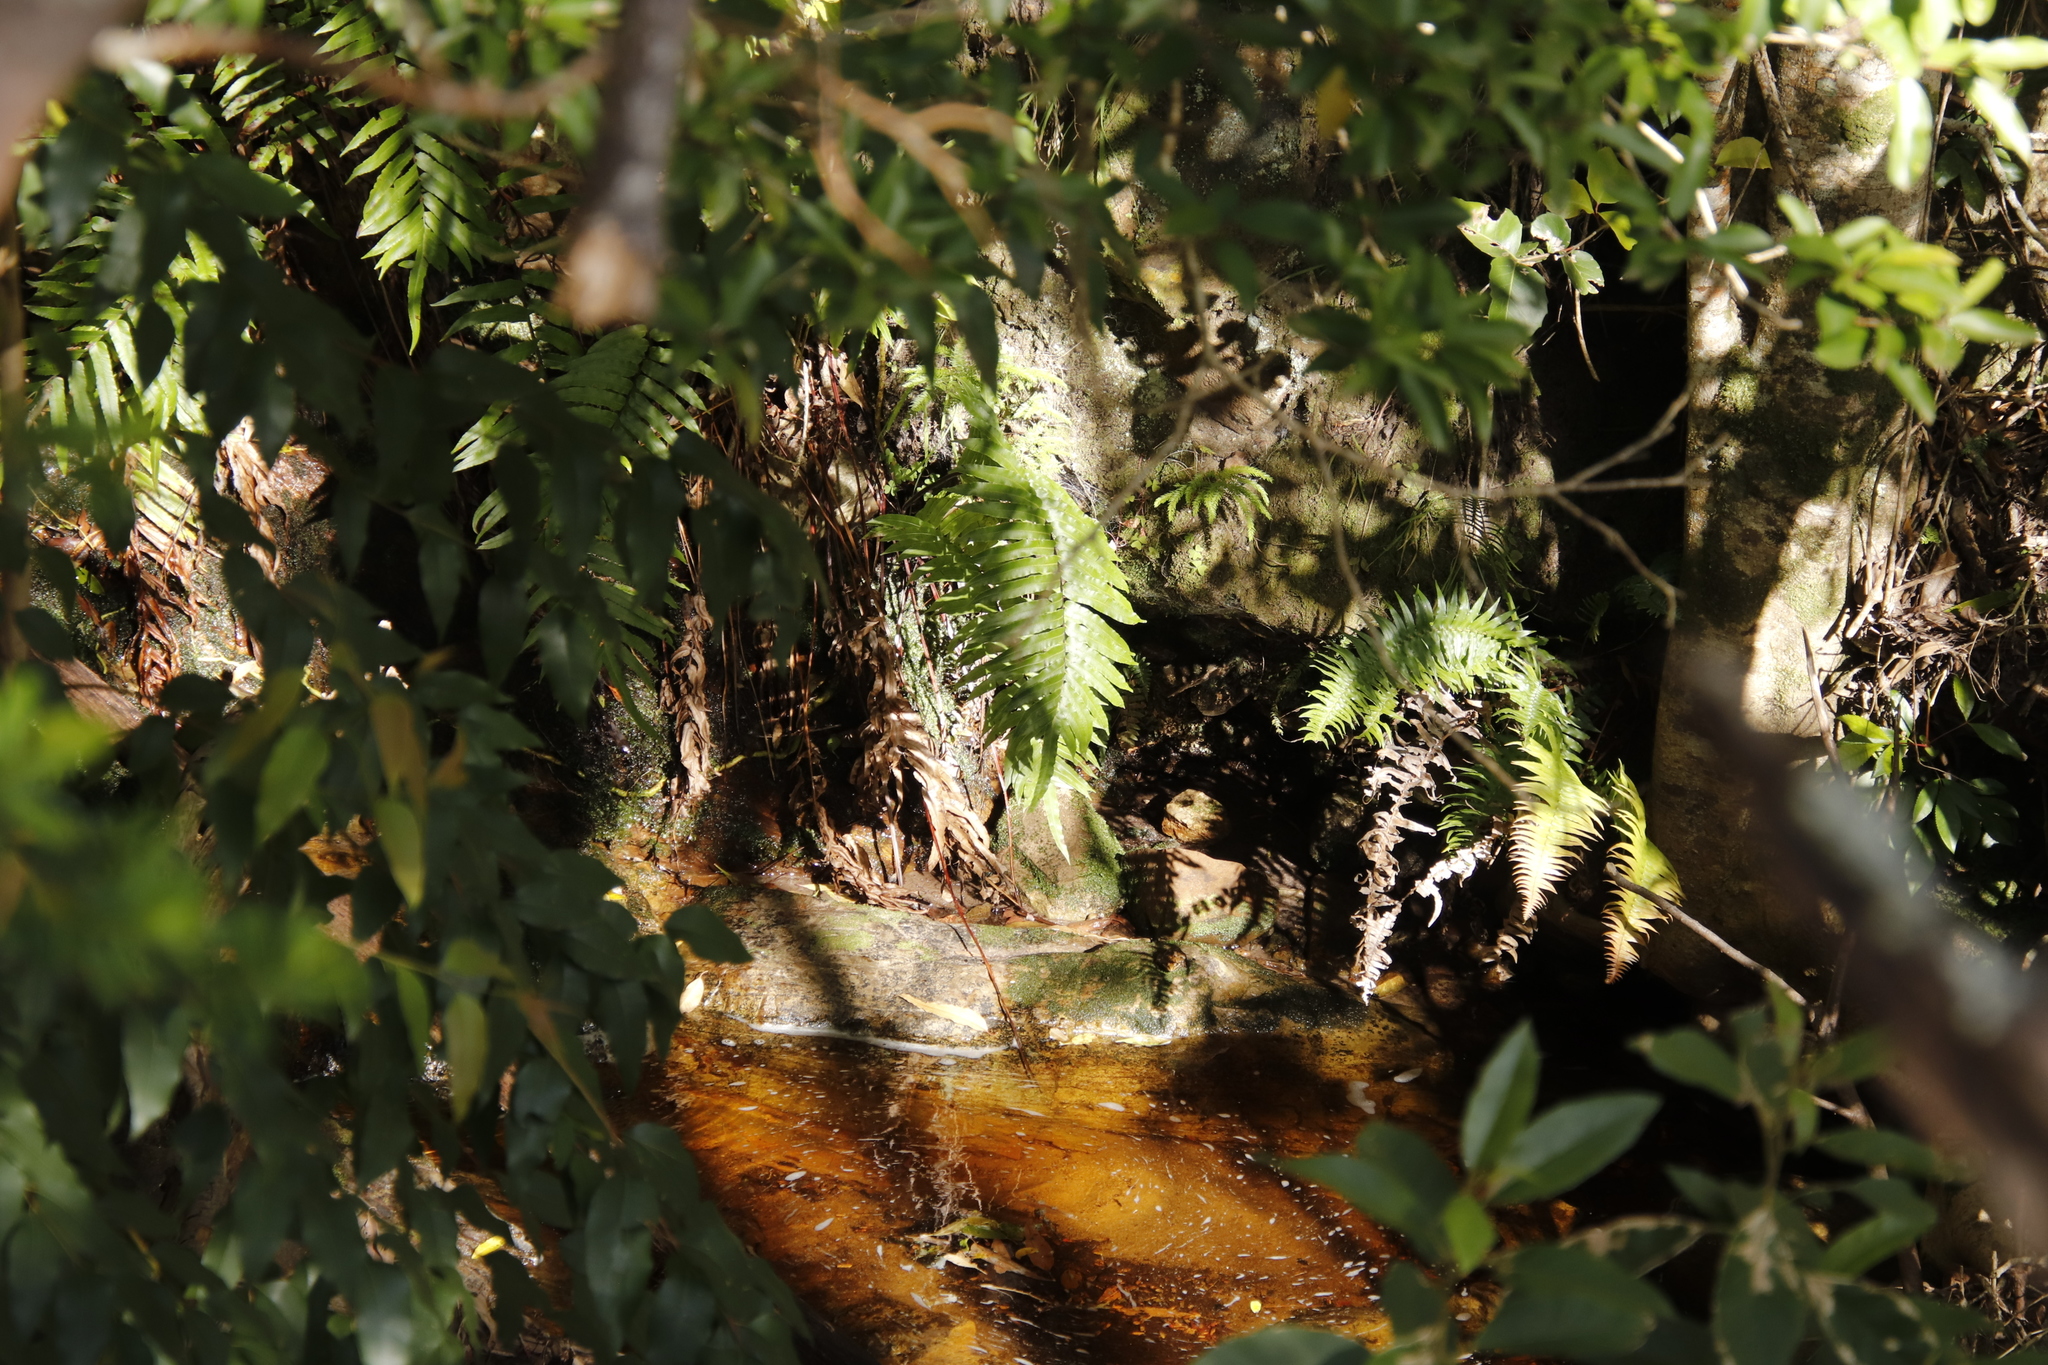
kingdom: Plantae
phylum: Tracheophyta
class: Polypodiopsida
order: Polypodiales
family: Blechnaceae
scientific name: Blechnaceae
